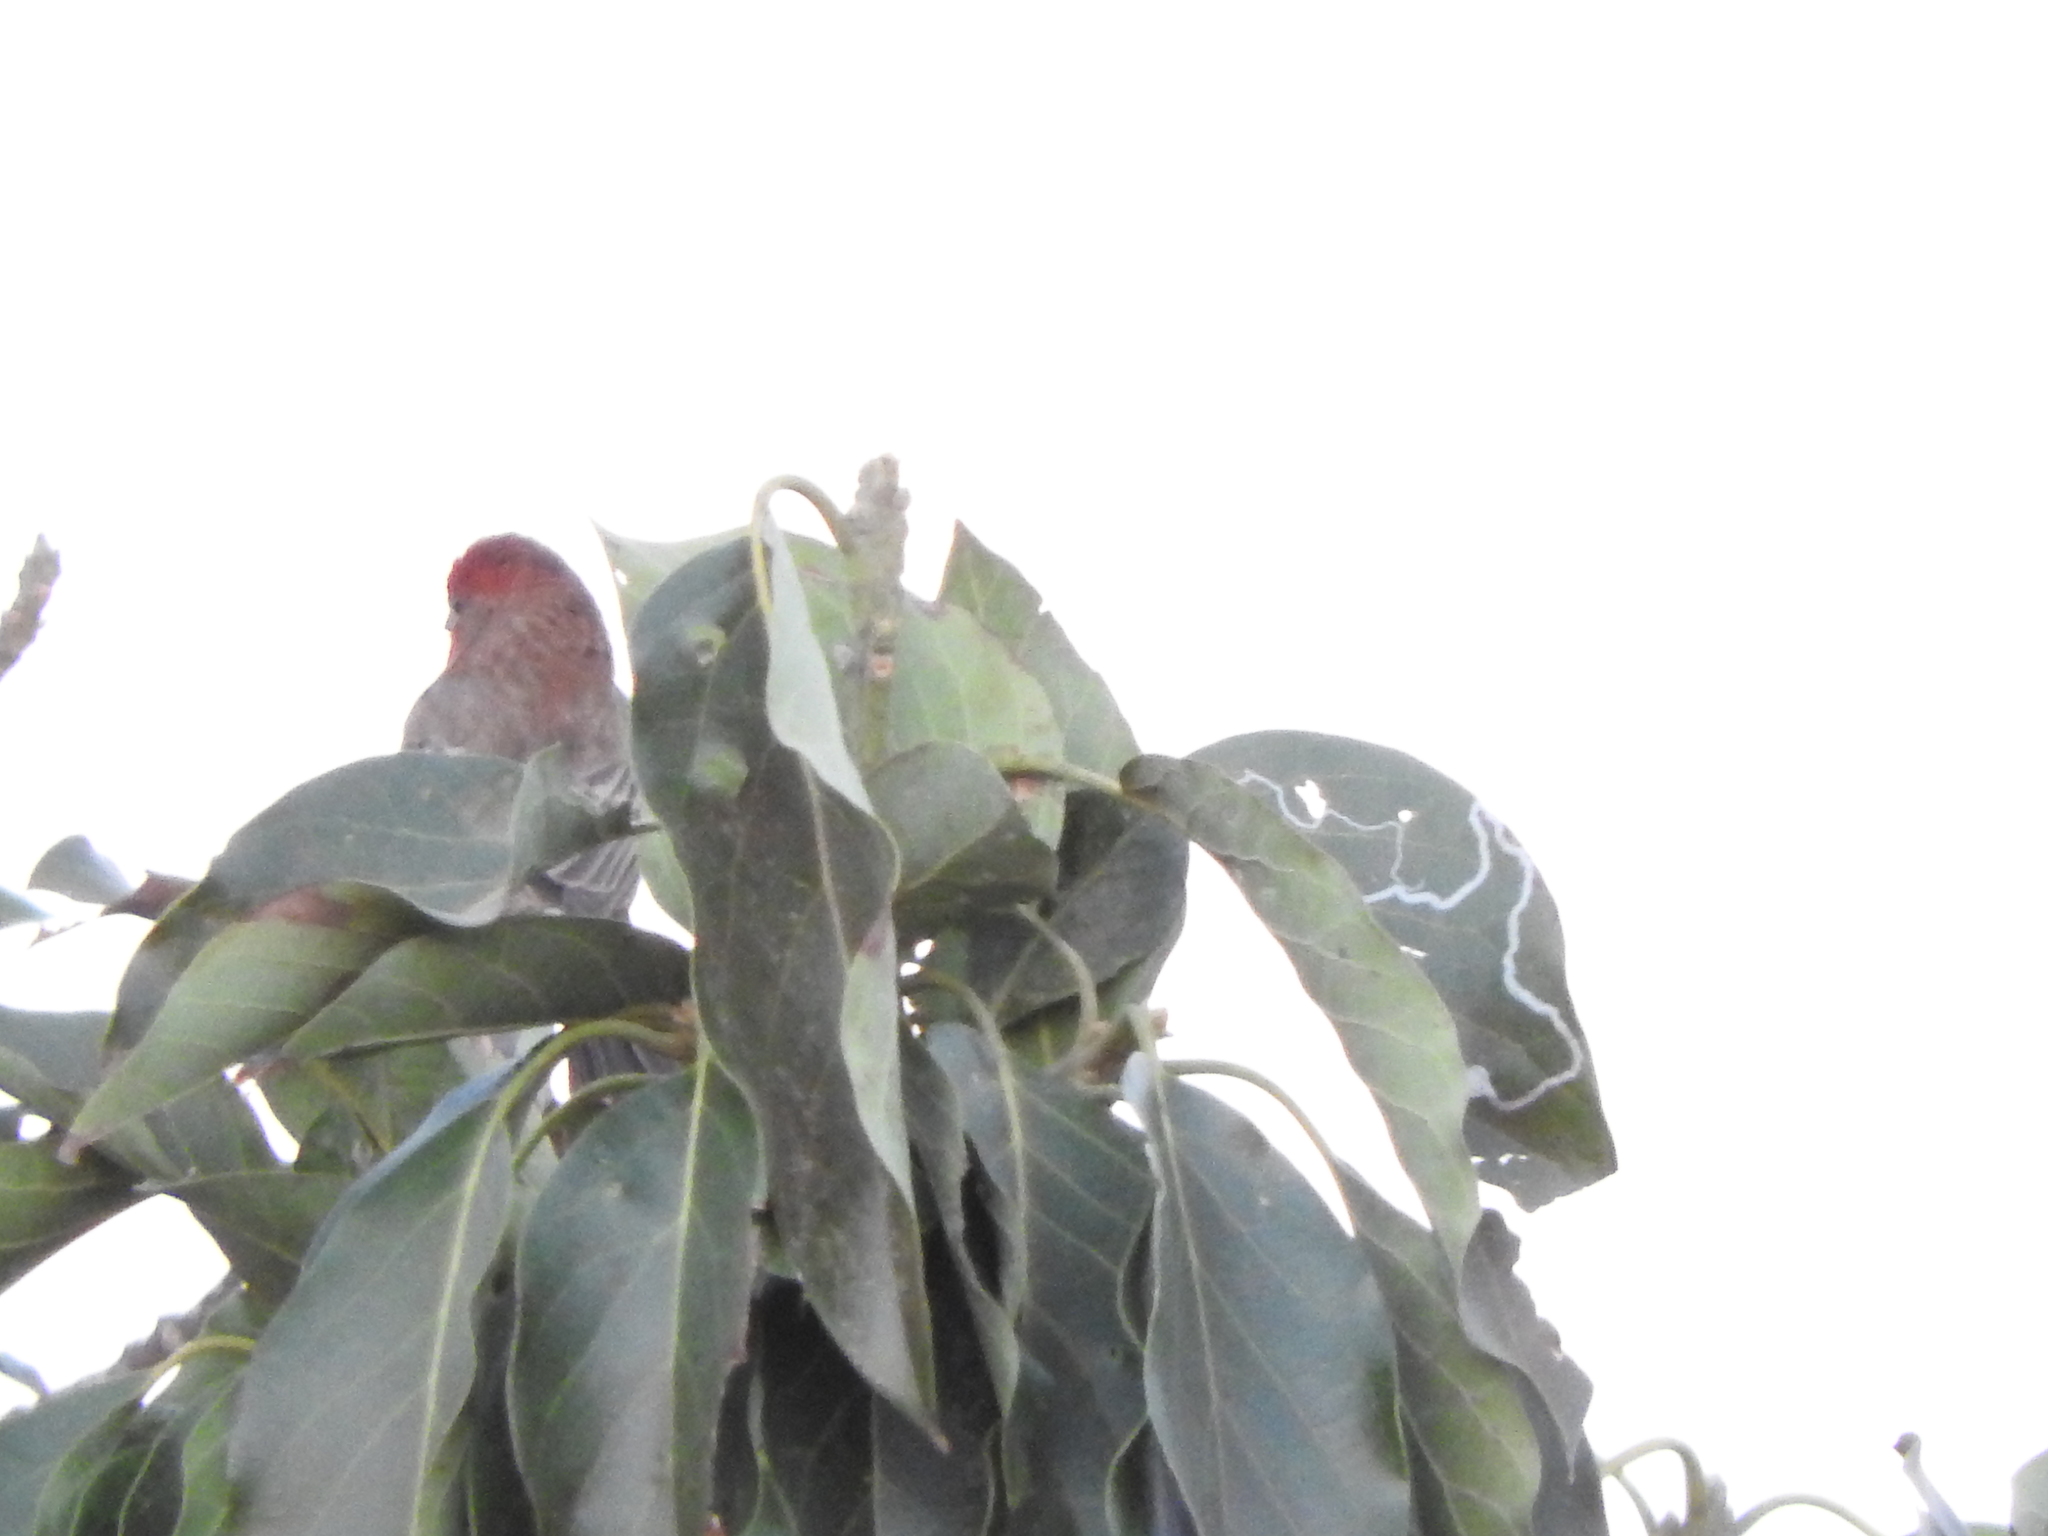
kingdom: Animalia
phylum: Chordata
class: Aves
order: Passeriformes
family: Fringillidae
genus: Haemorhous
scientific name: Haemorhous mexicanus
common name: House finch
